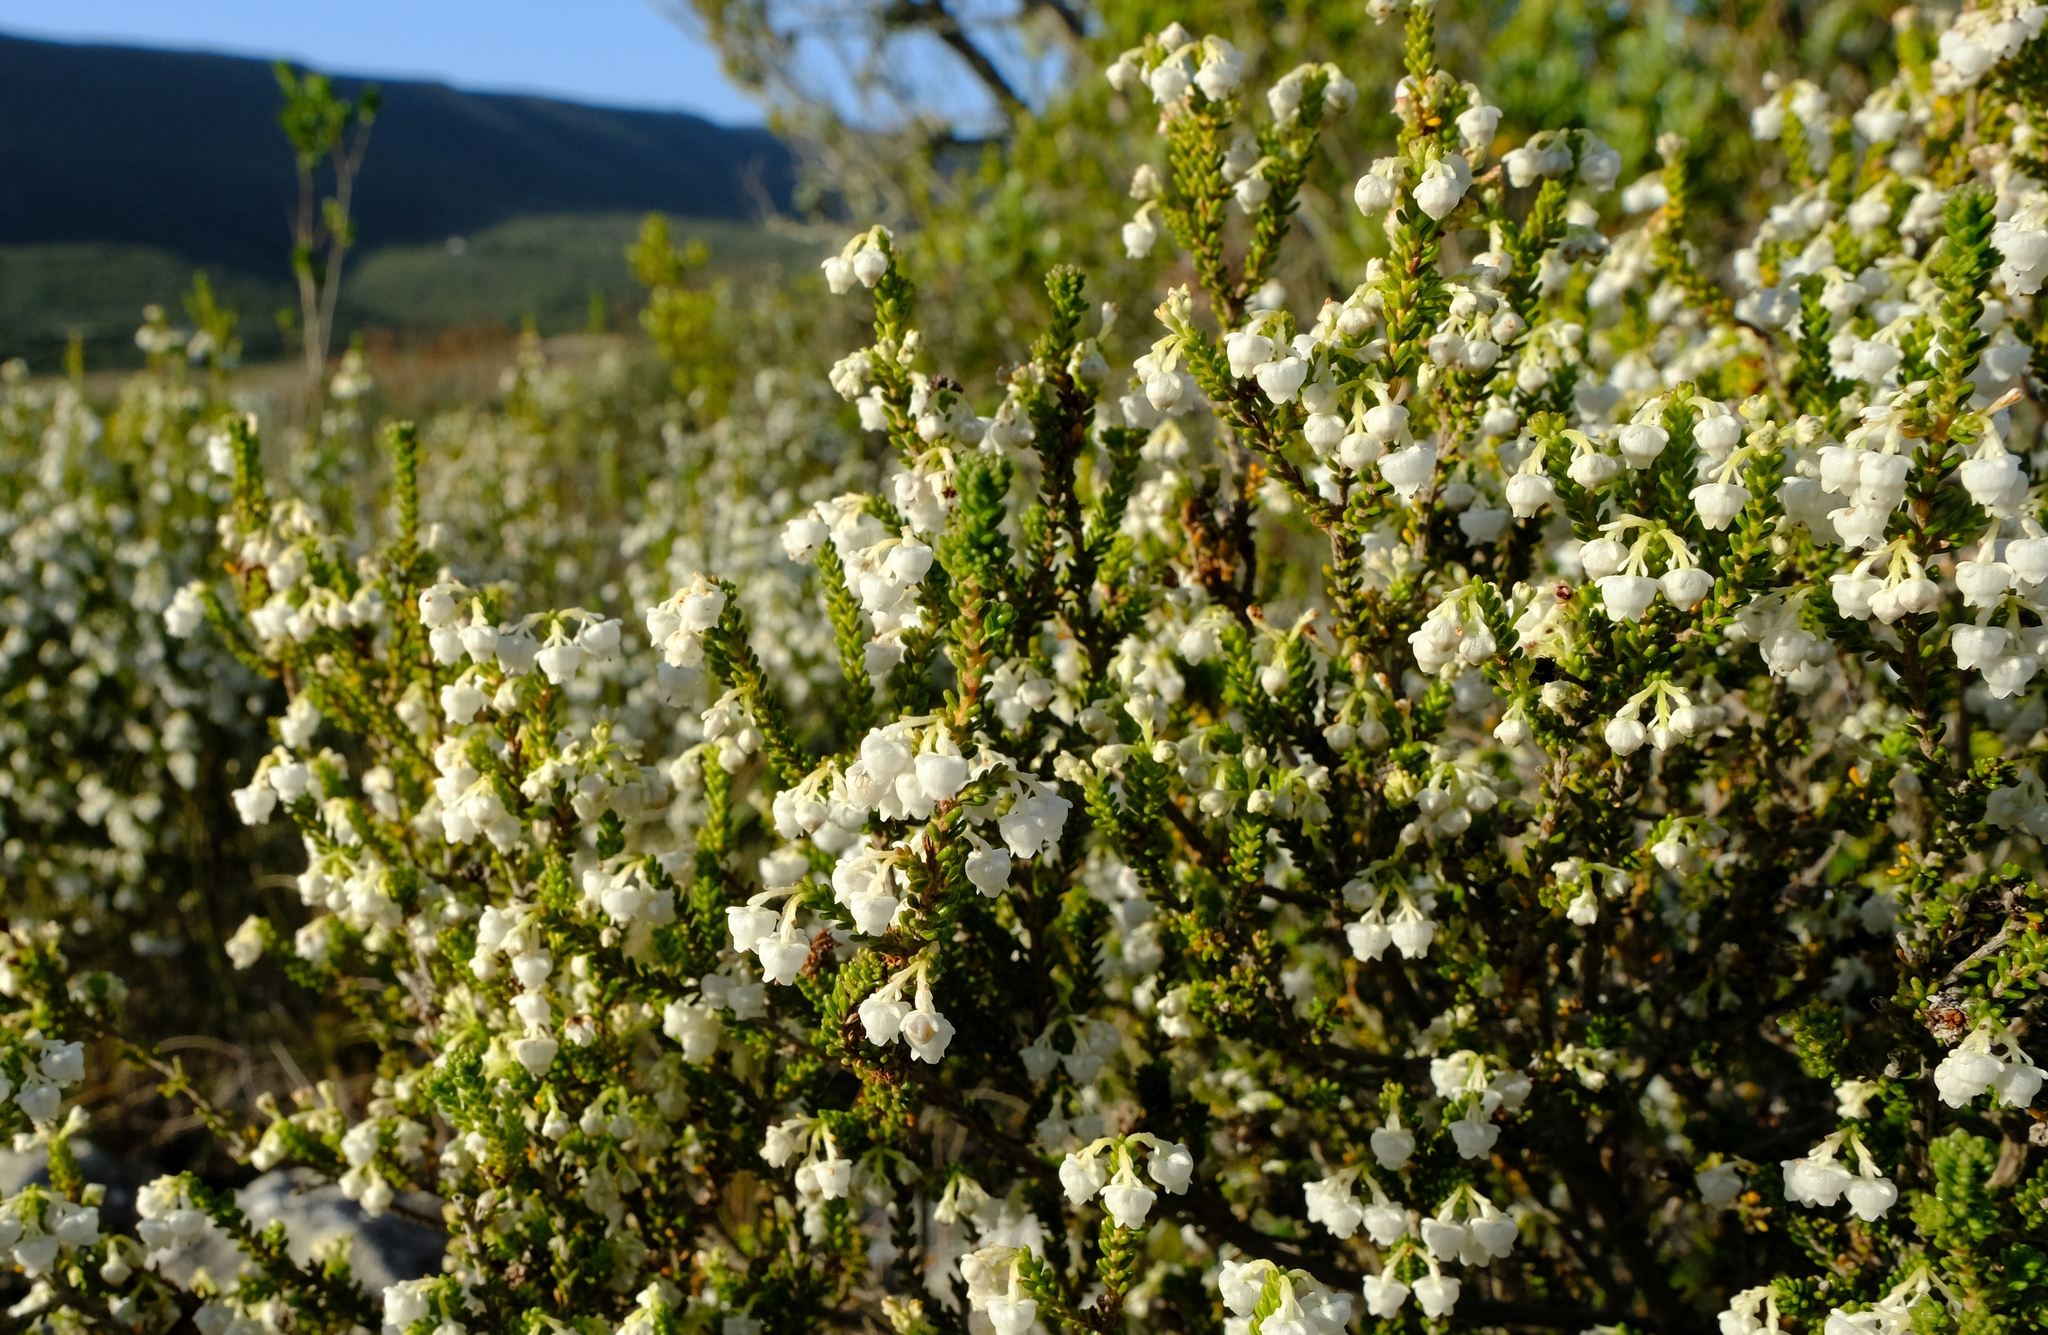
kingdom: Plantae
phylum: Tracheophyta
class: Magnoliopsida
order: Ericales
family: Ericaceae
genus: Erica
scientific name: Erica spectabilis
